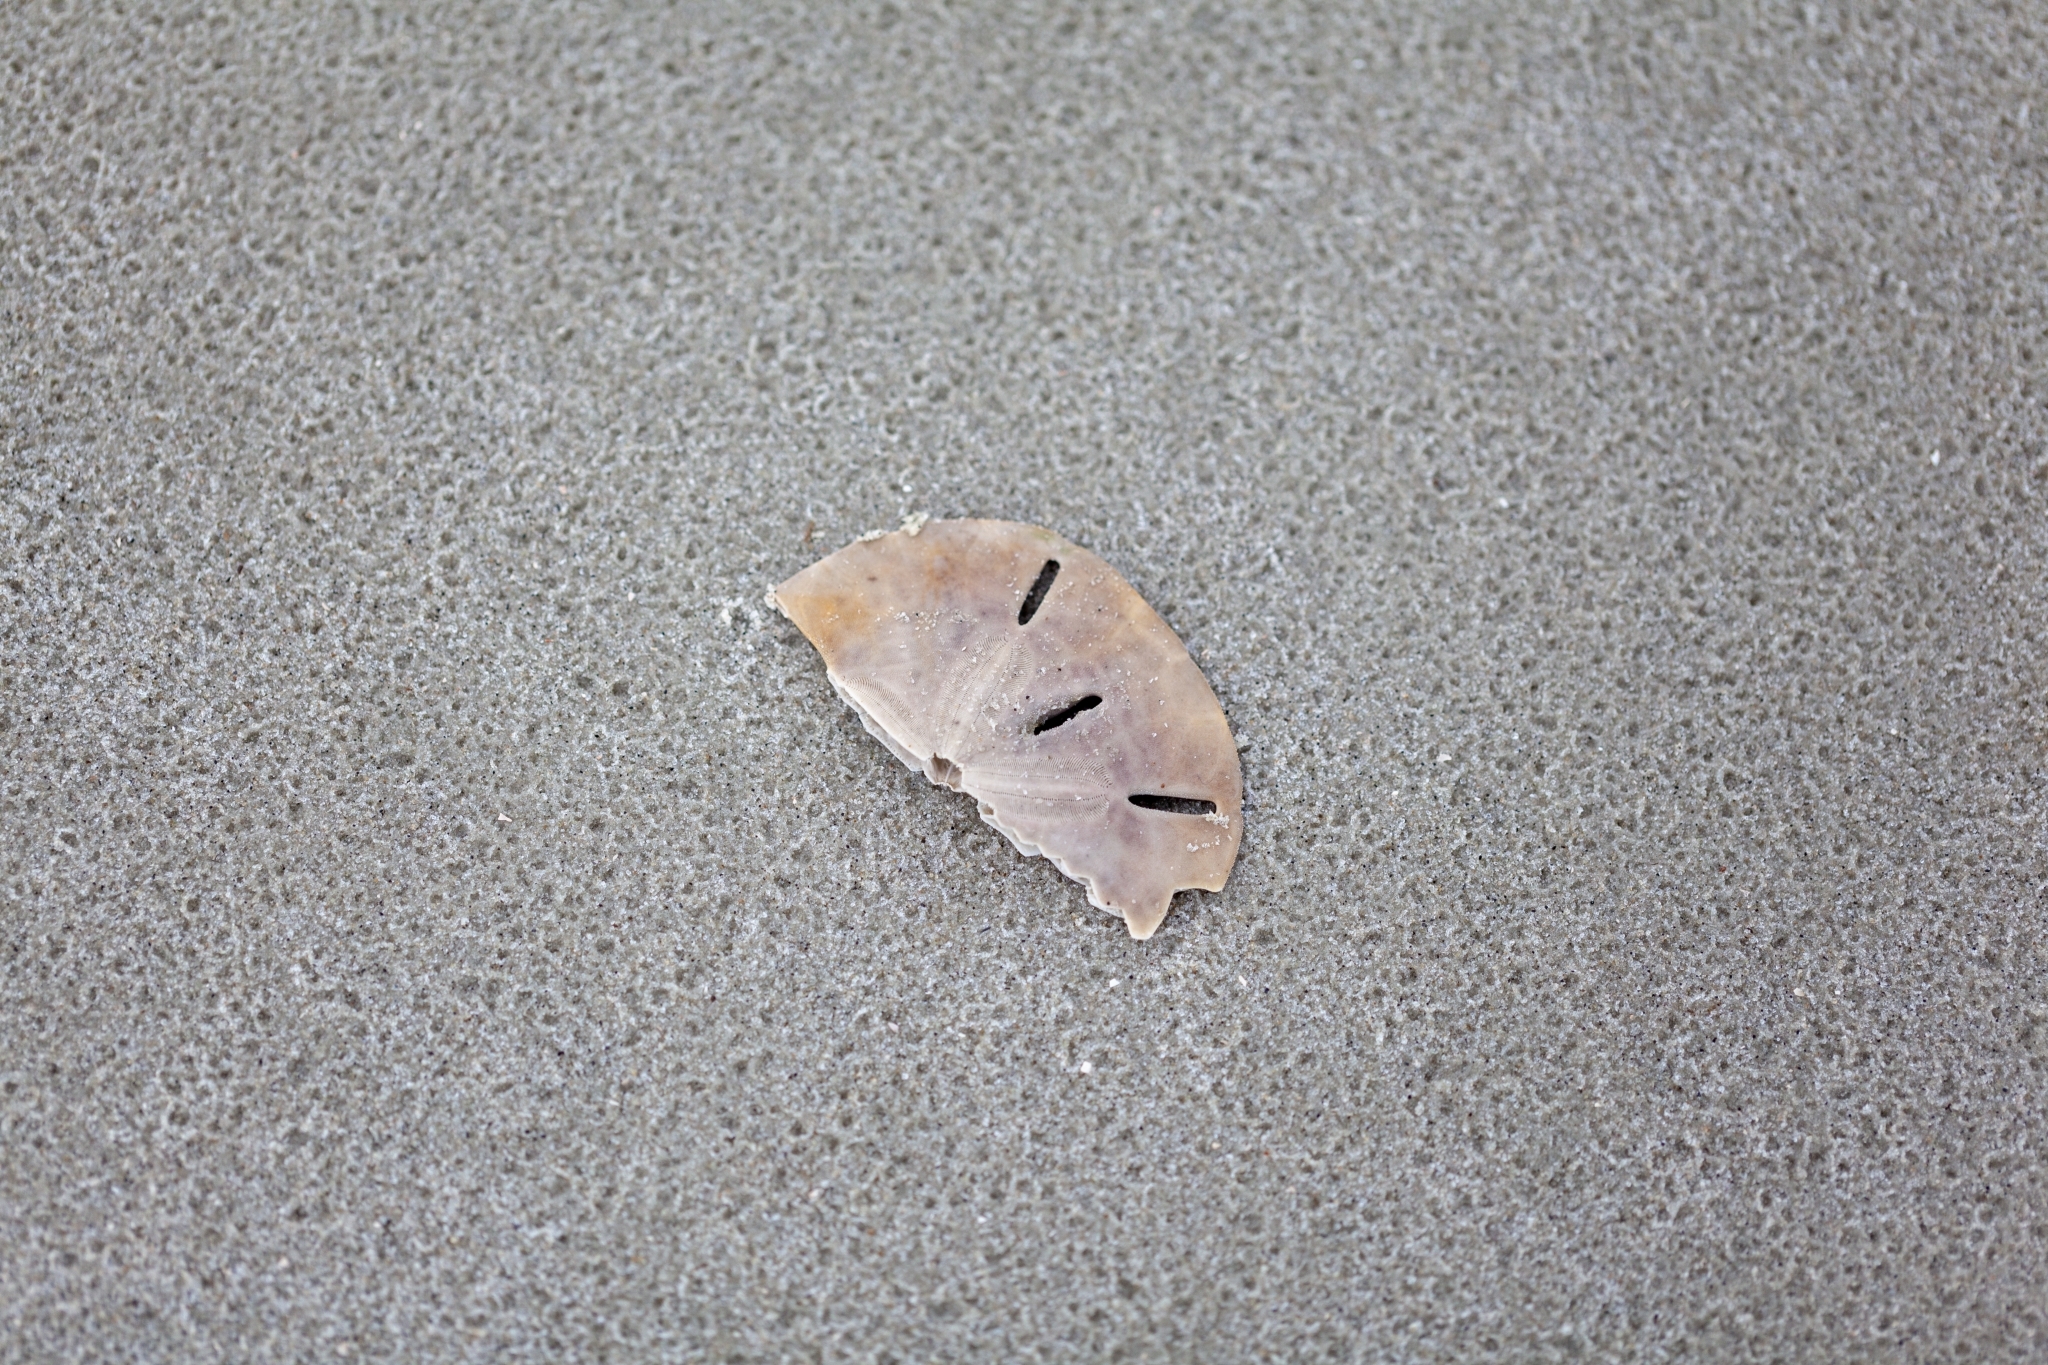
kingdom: Animalia
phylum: Echinodermata
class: Echinoidea
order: Echinolampadacea
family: Mellitidae
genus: Mellita
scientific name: Mellita quinquiesperforata
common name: Sand dollar
